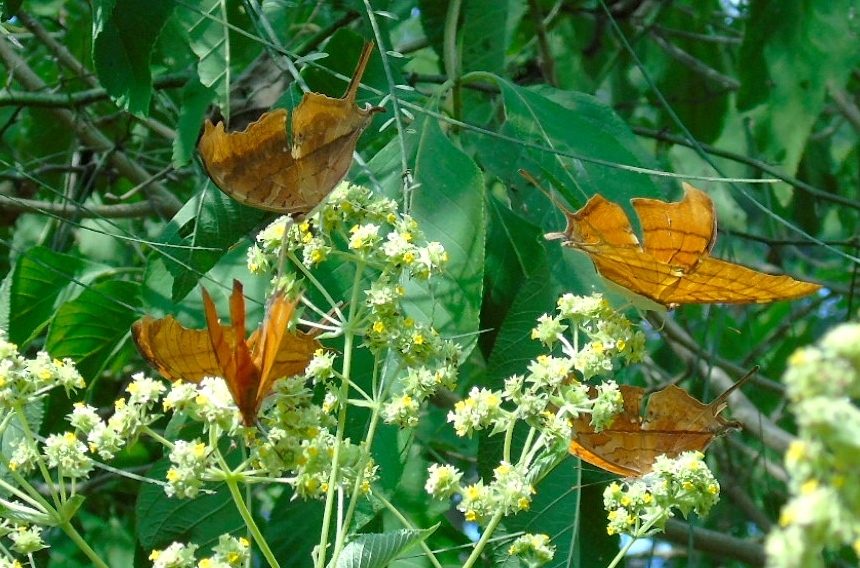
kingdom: Animalia
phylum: Arthropoda
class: Insecta
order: Lepidoptera
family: Nymphalidae
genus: Marpesia
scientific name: Marpesia petreus
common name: Red dagger wing
